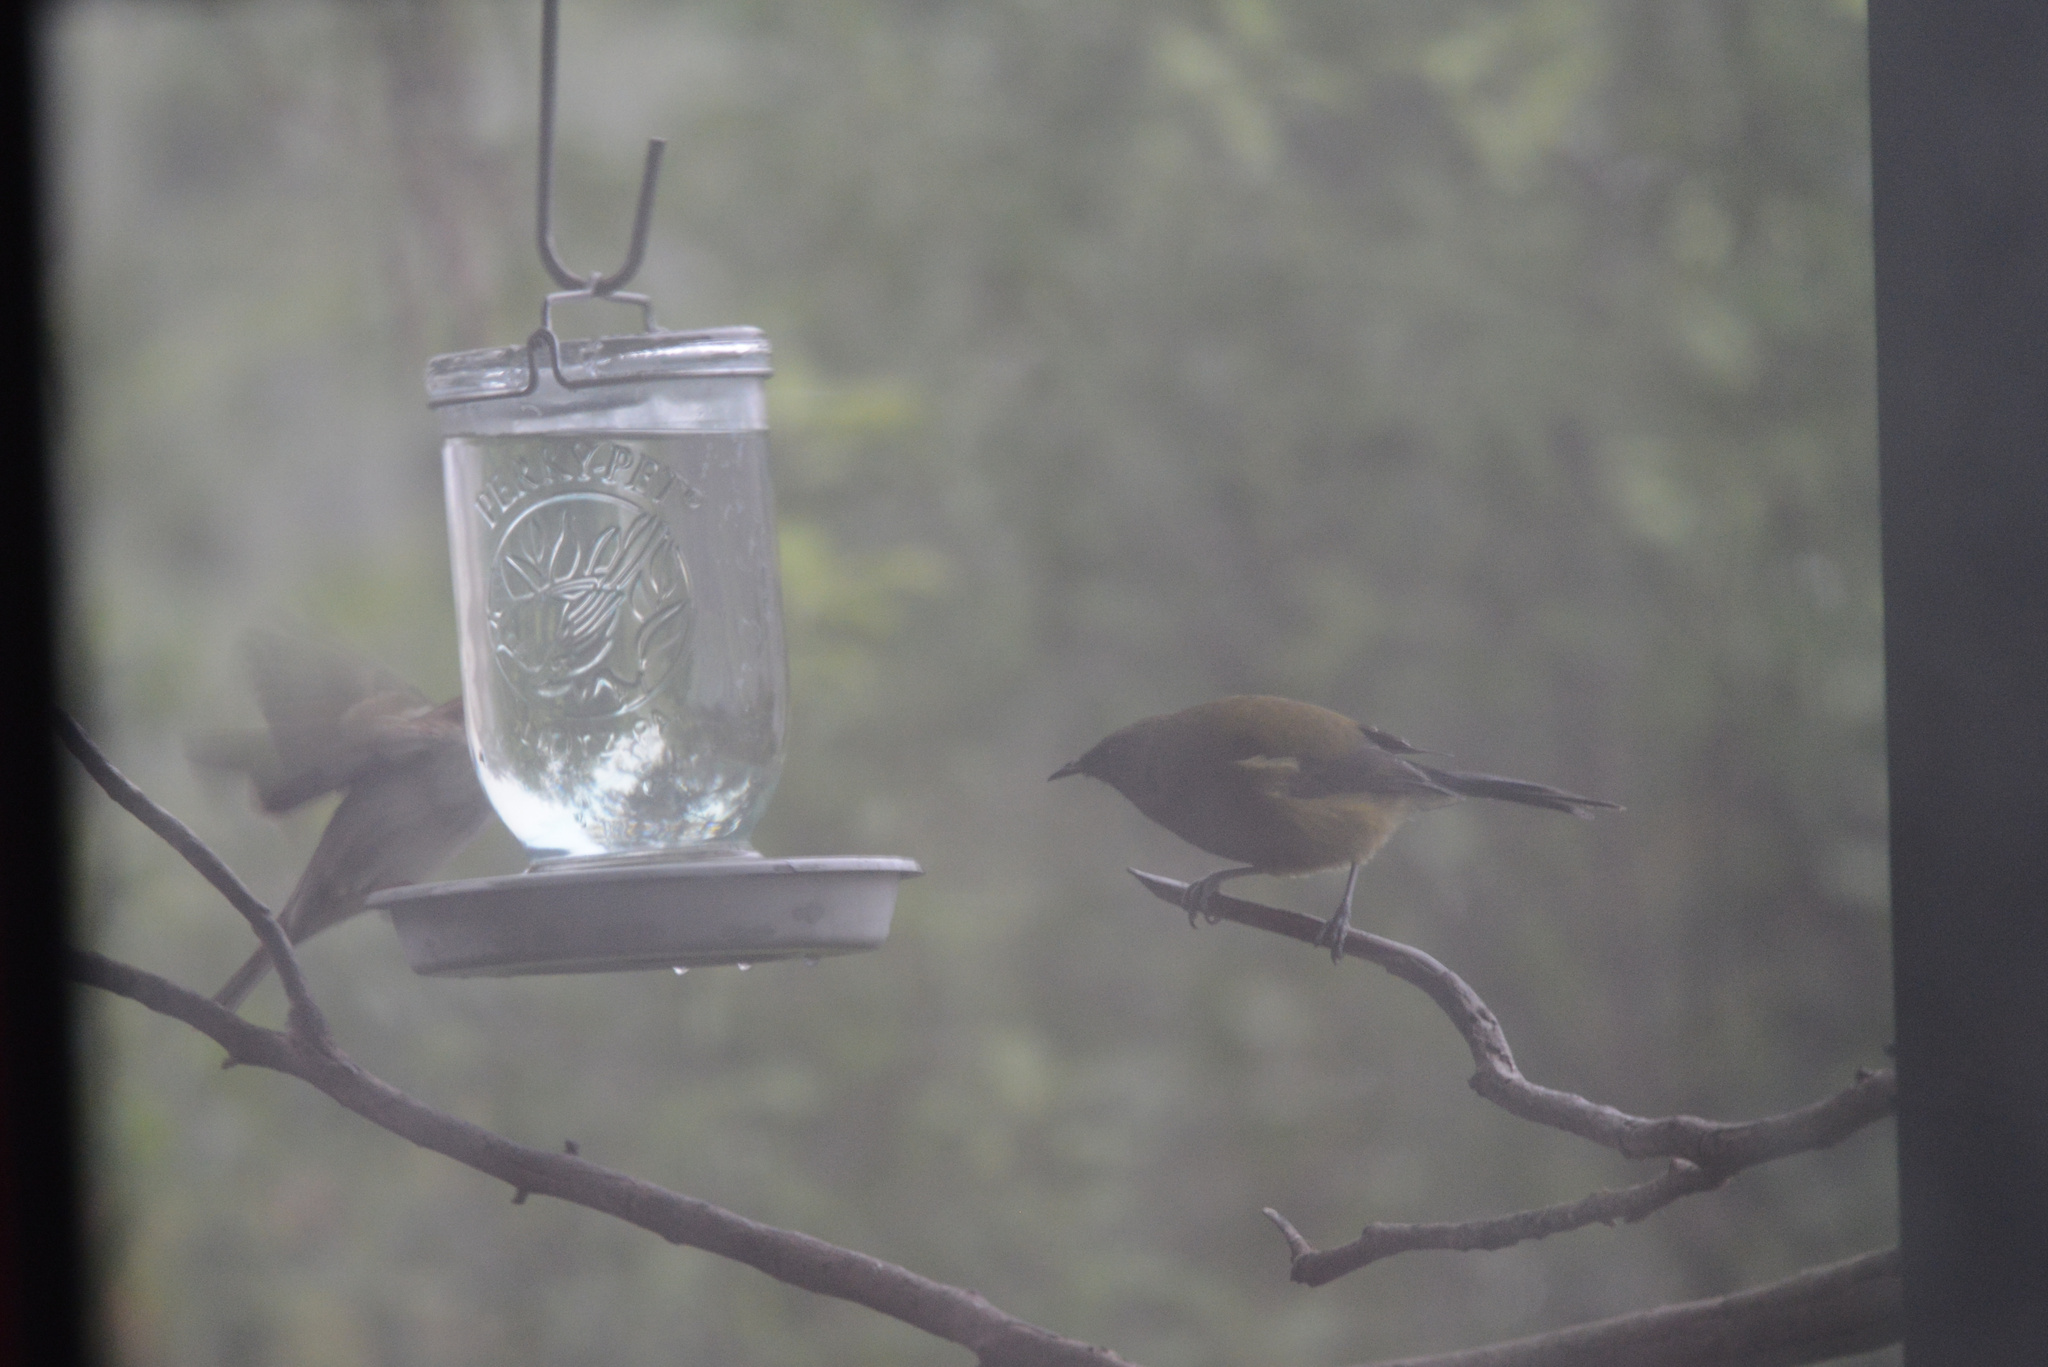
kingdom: Animalia
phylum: Chordata
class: Aves
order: Passeriformes
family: Meliphagidae
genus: Anthornis
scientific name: Anthornis melanura
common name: New zealand bellbird
